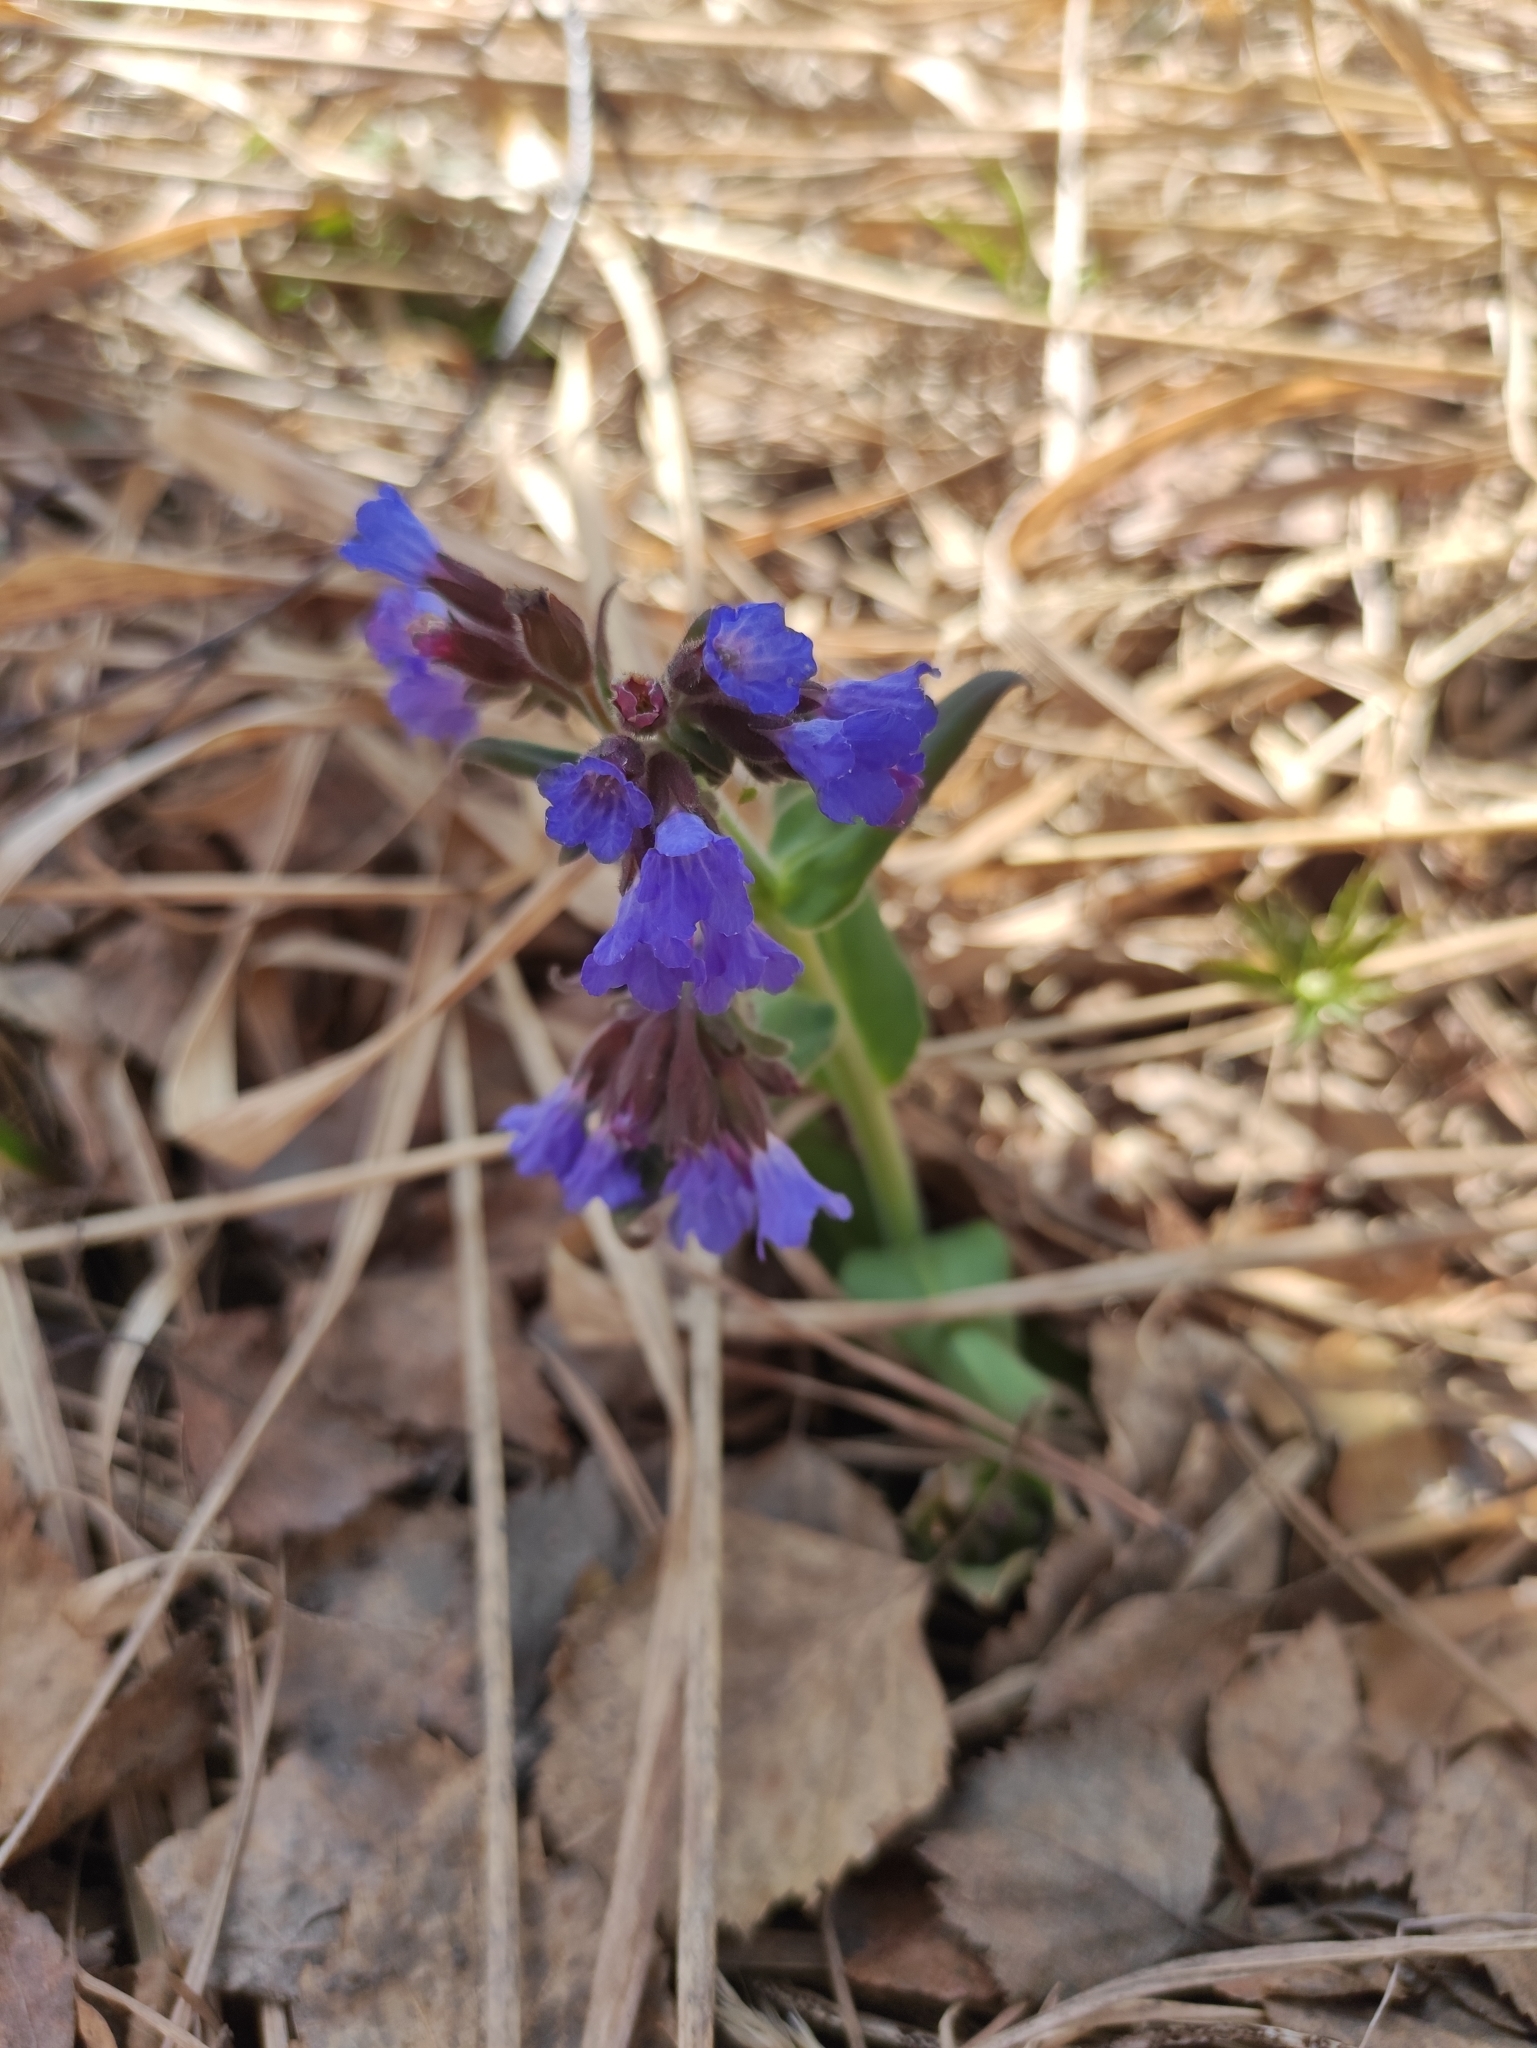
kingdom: Plantae
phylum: Tracheophyta
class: Magnoliopsida
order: Boraginales
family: Boraginaceae
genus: Pulmonaria
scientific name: Pulmonaria mollis
